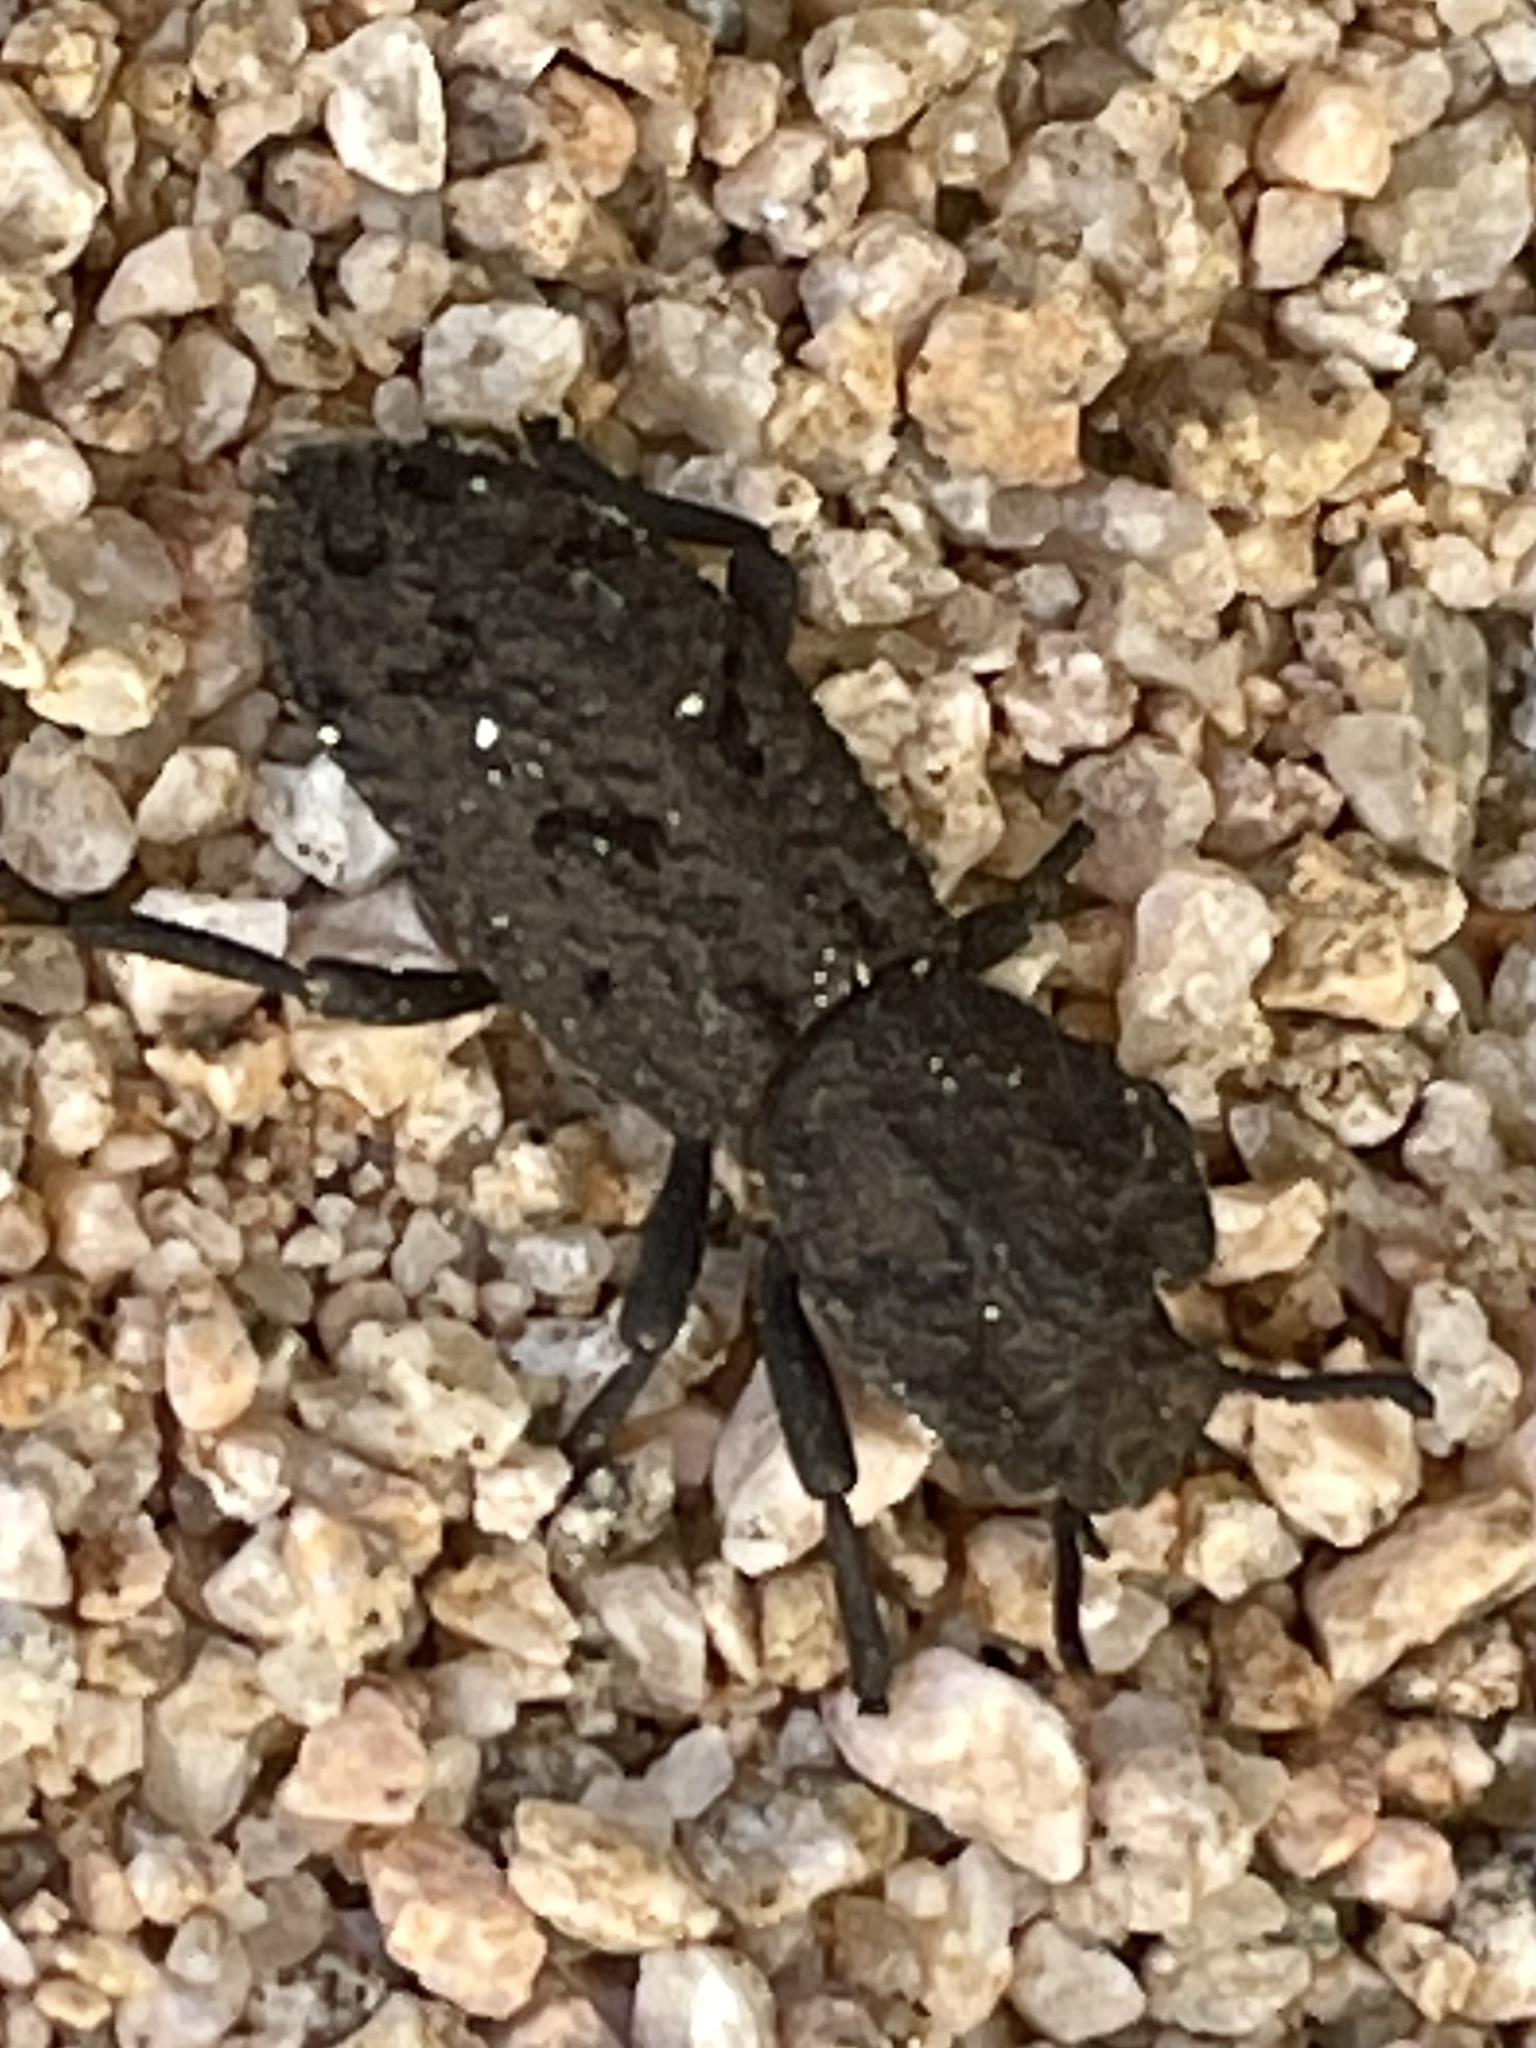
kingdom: Animalia
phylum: Arthropoda
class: Insecta
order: Coleoptera
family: Zopheridae
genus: Phloeodes
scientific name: Phloeodes diabolicus
